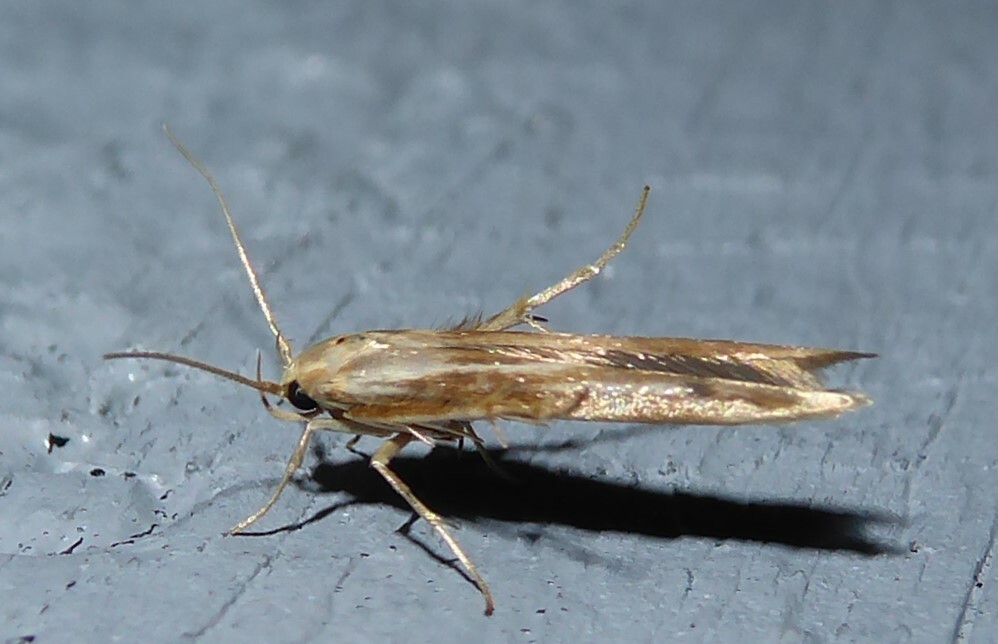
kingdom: Animalia
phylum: Arthropoda
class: Insecta
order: Lepidoptera
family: Stathmopodidae
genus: Stathmopoda
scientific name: Stathmopoda aposema
